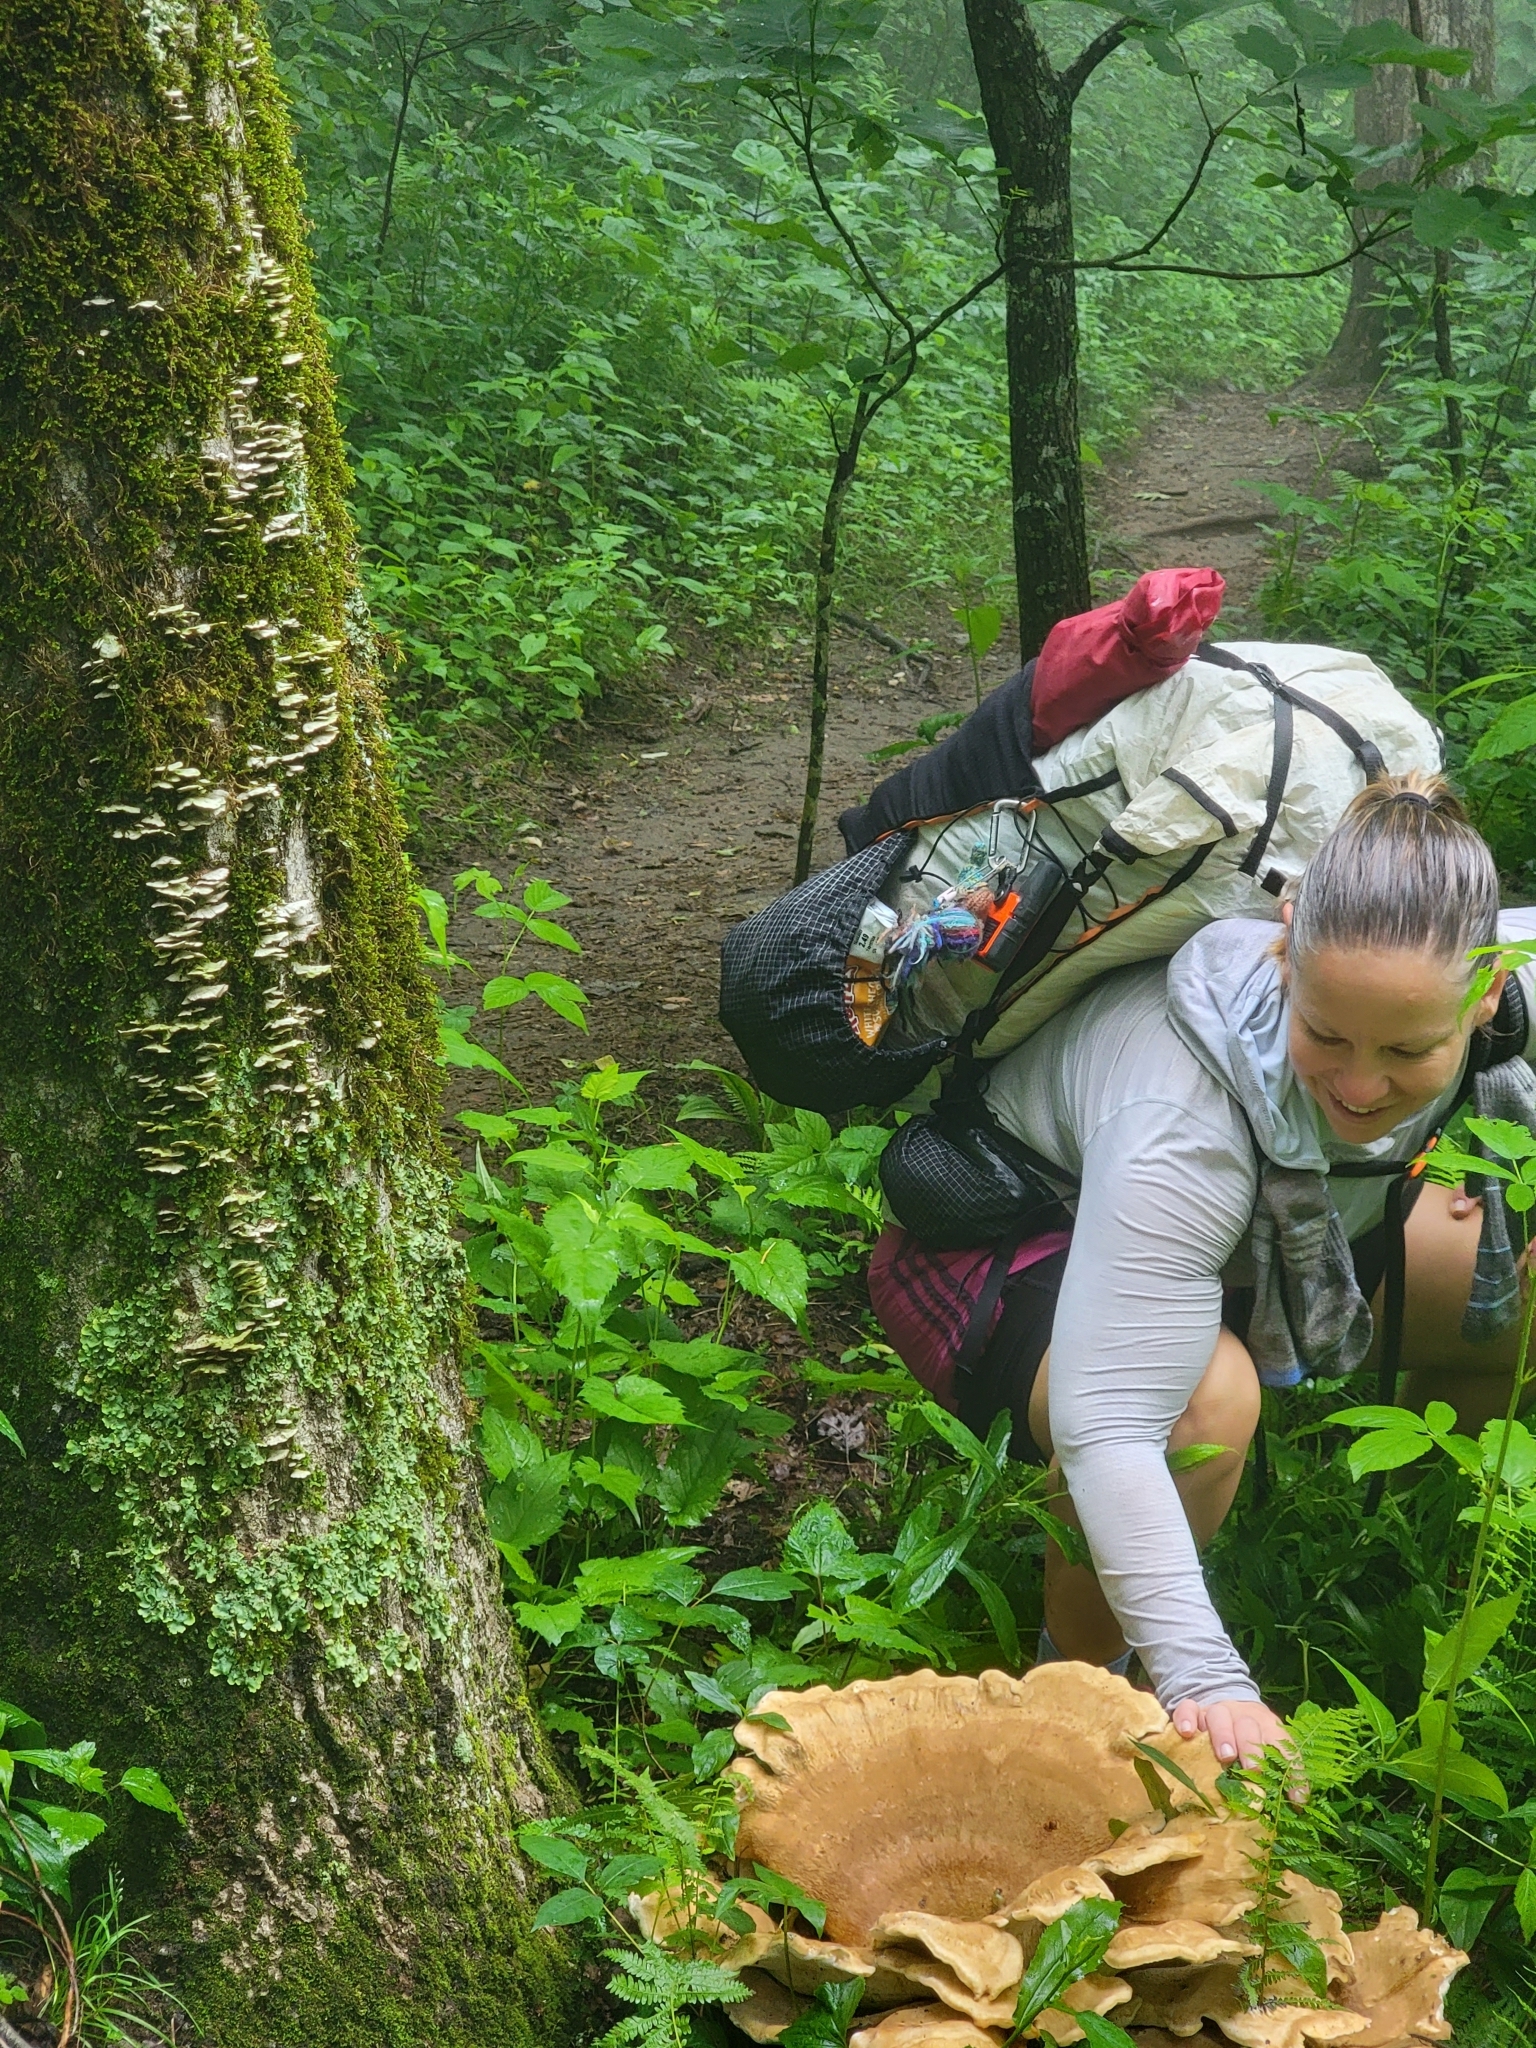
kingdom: Fungi
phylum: Basidiomycota
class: Agaricomycetes
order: Russulales
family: Bondarzewiaceae
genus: Bondarzewia
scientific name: Bondarzewia berkeleyi
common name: Berkeley's polypore
